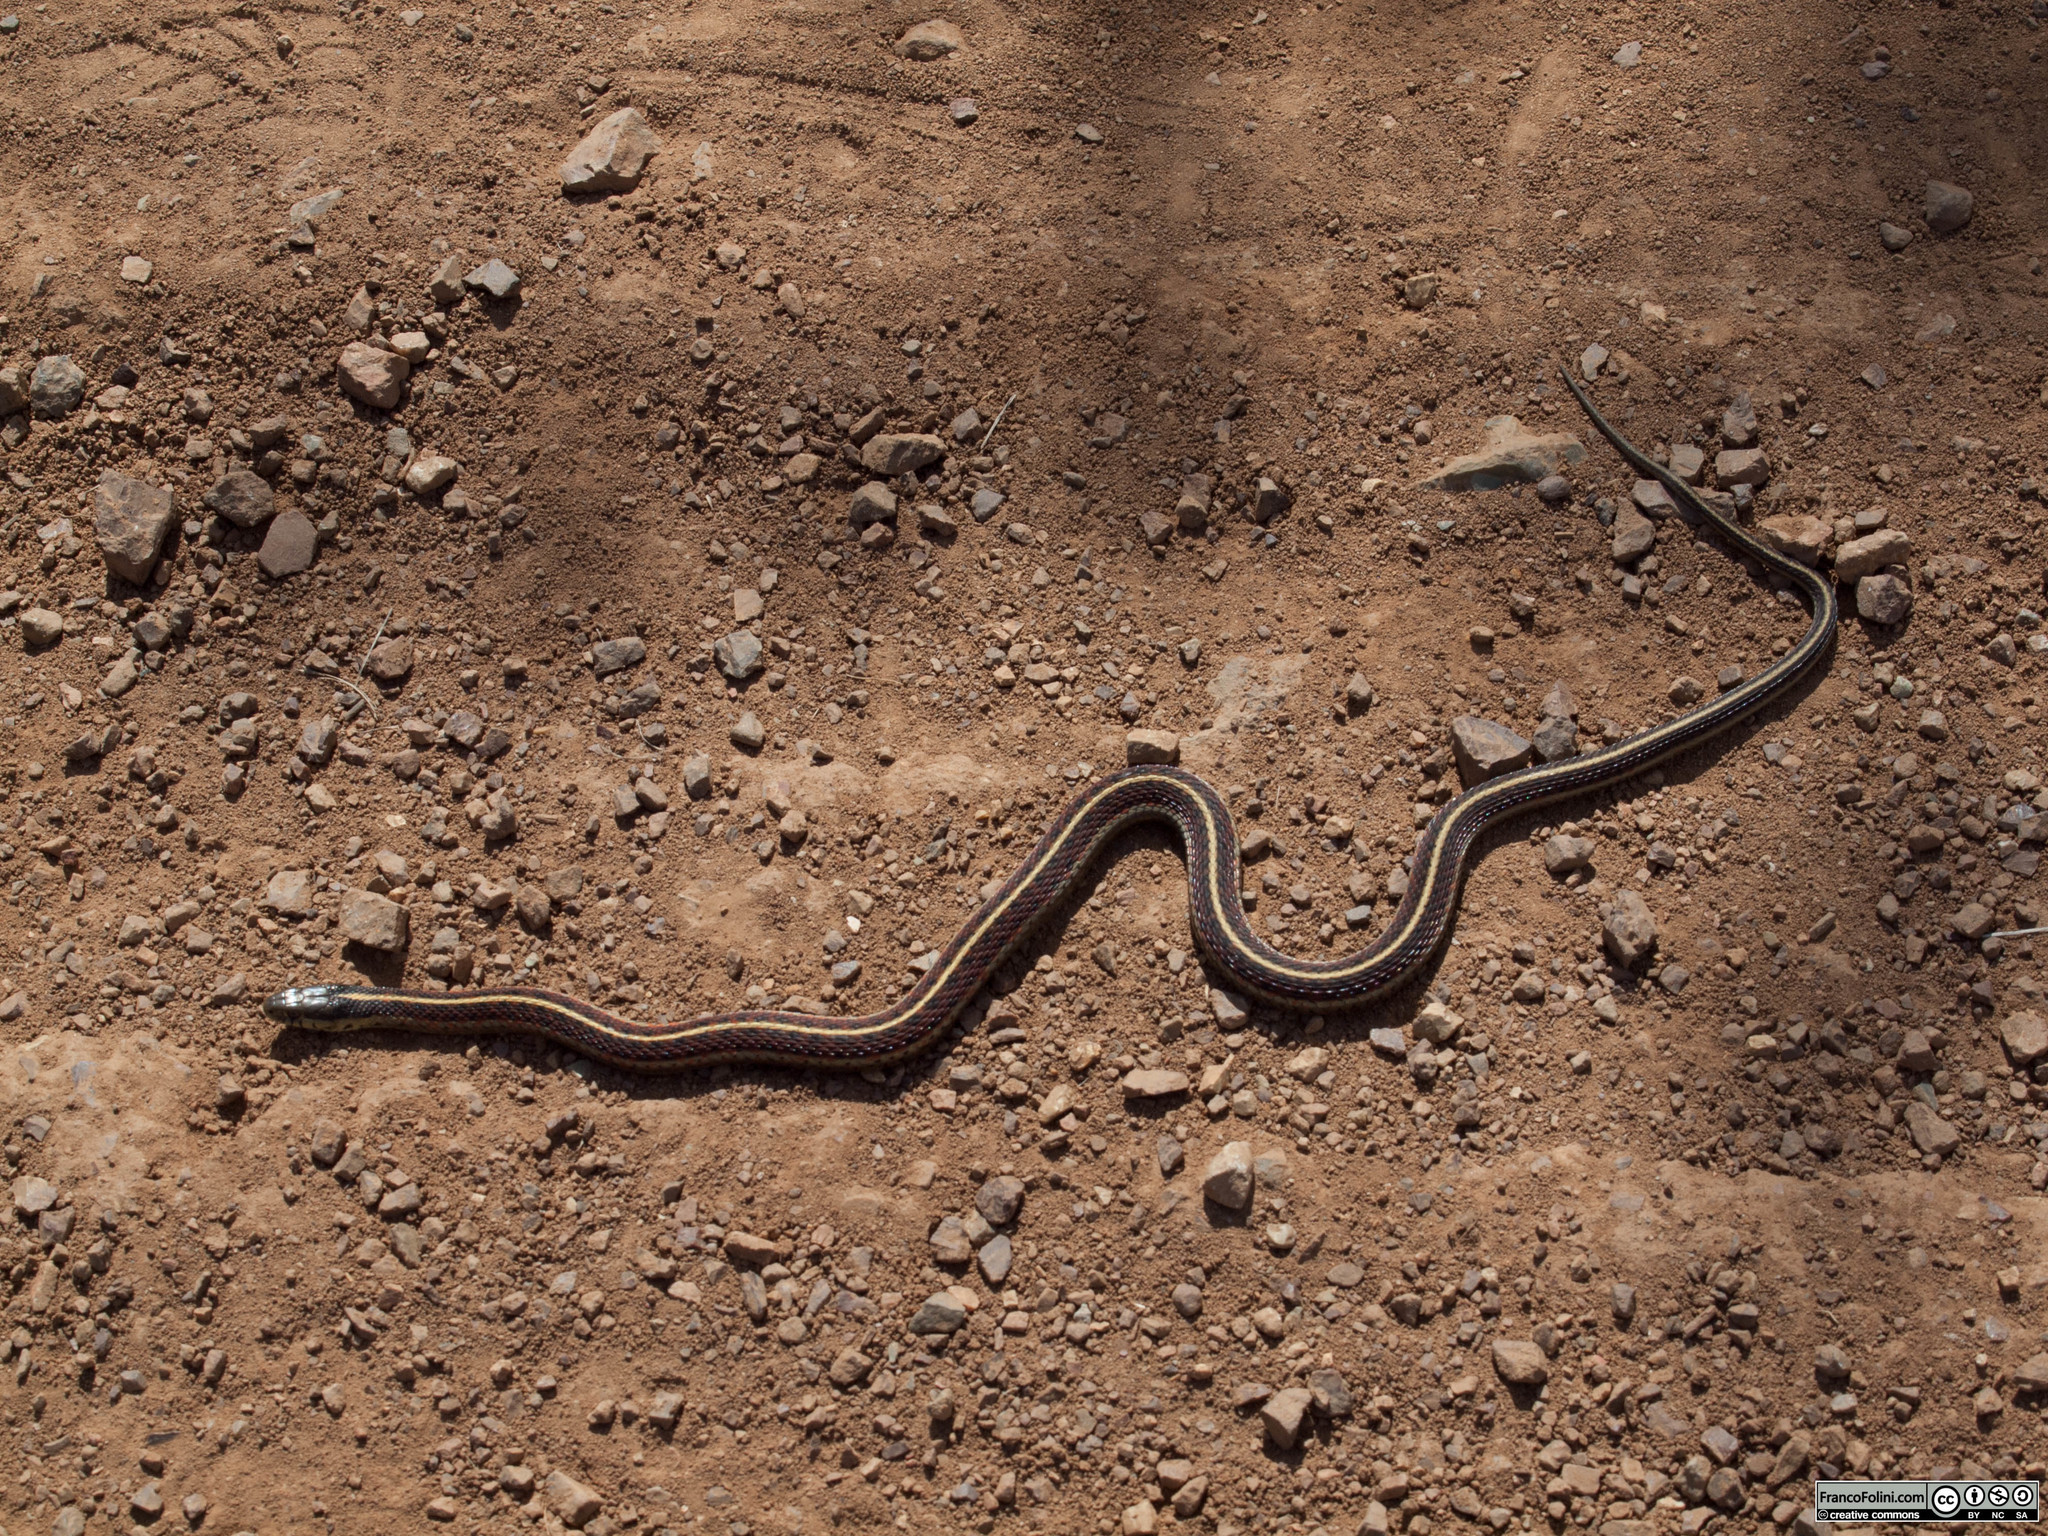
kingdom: Animalia
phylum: Chordata
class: Squamata
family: Colubridae
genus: Thamnophis
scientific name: Thamnophis elegans
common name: Western terrestrial garter snake
